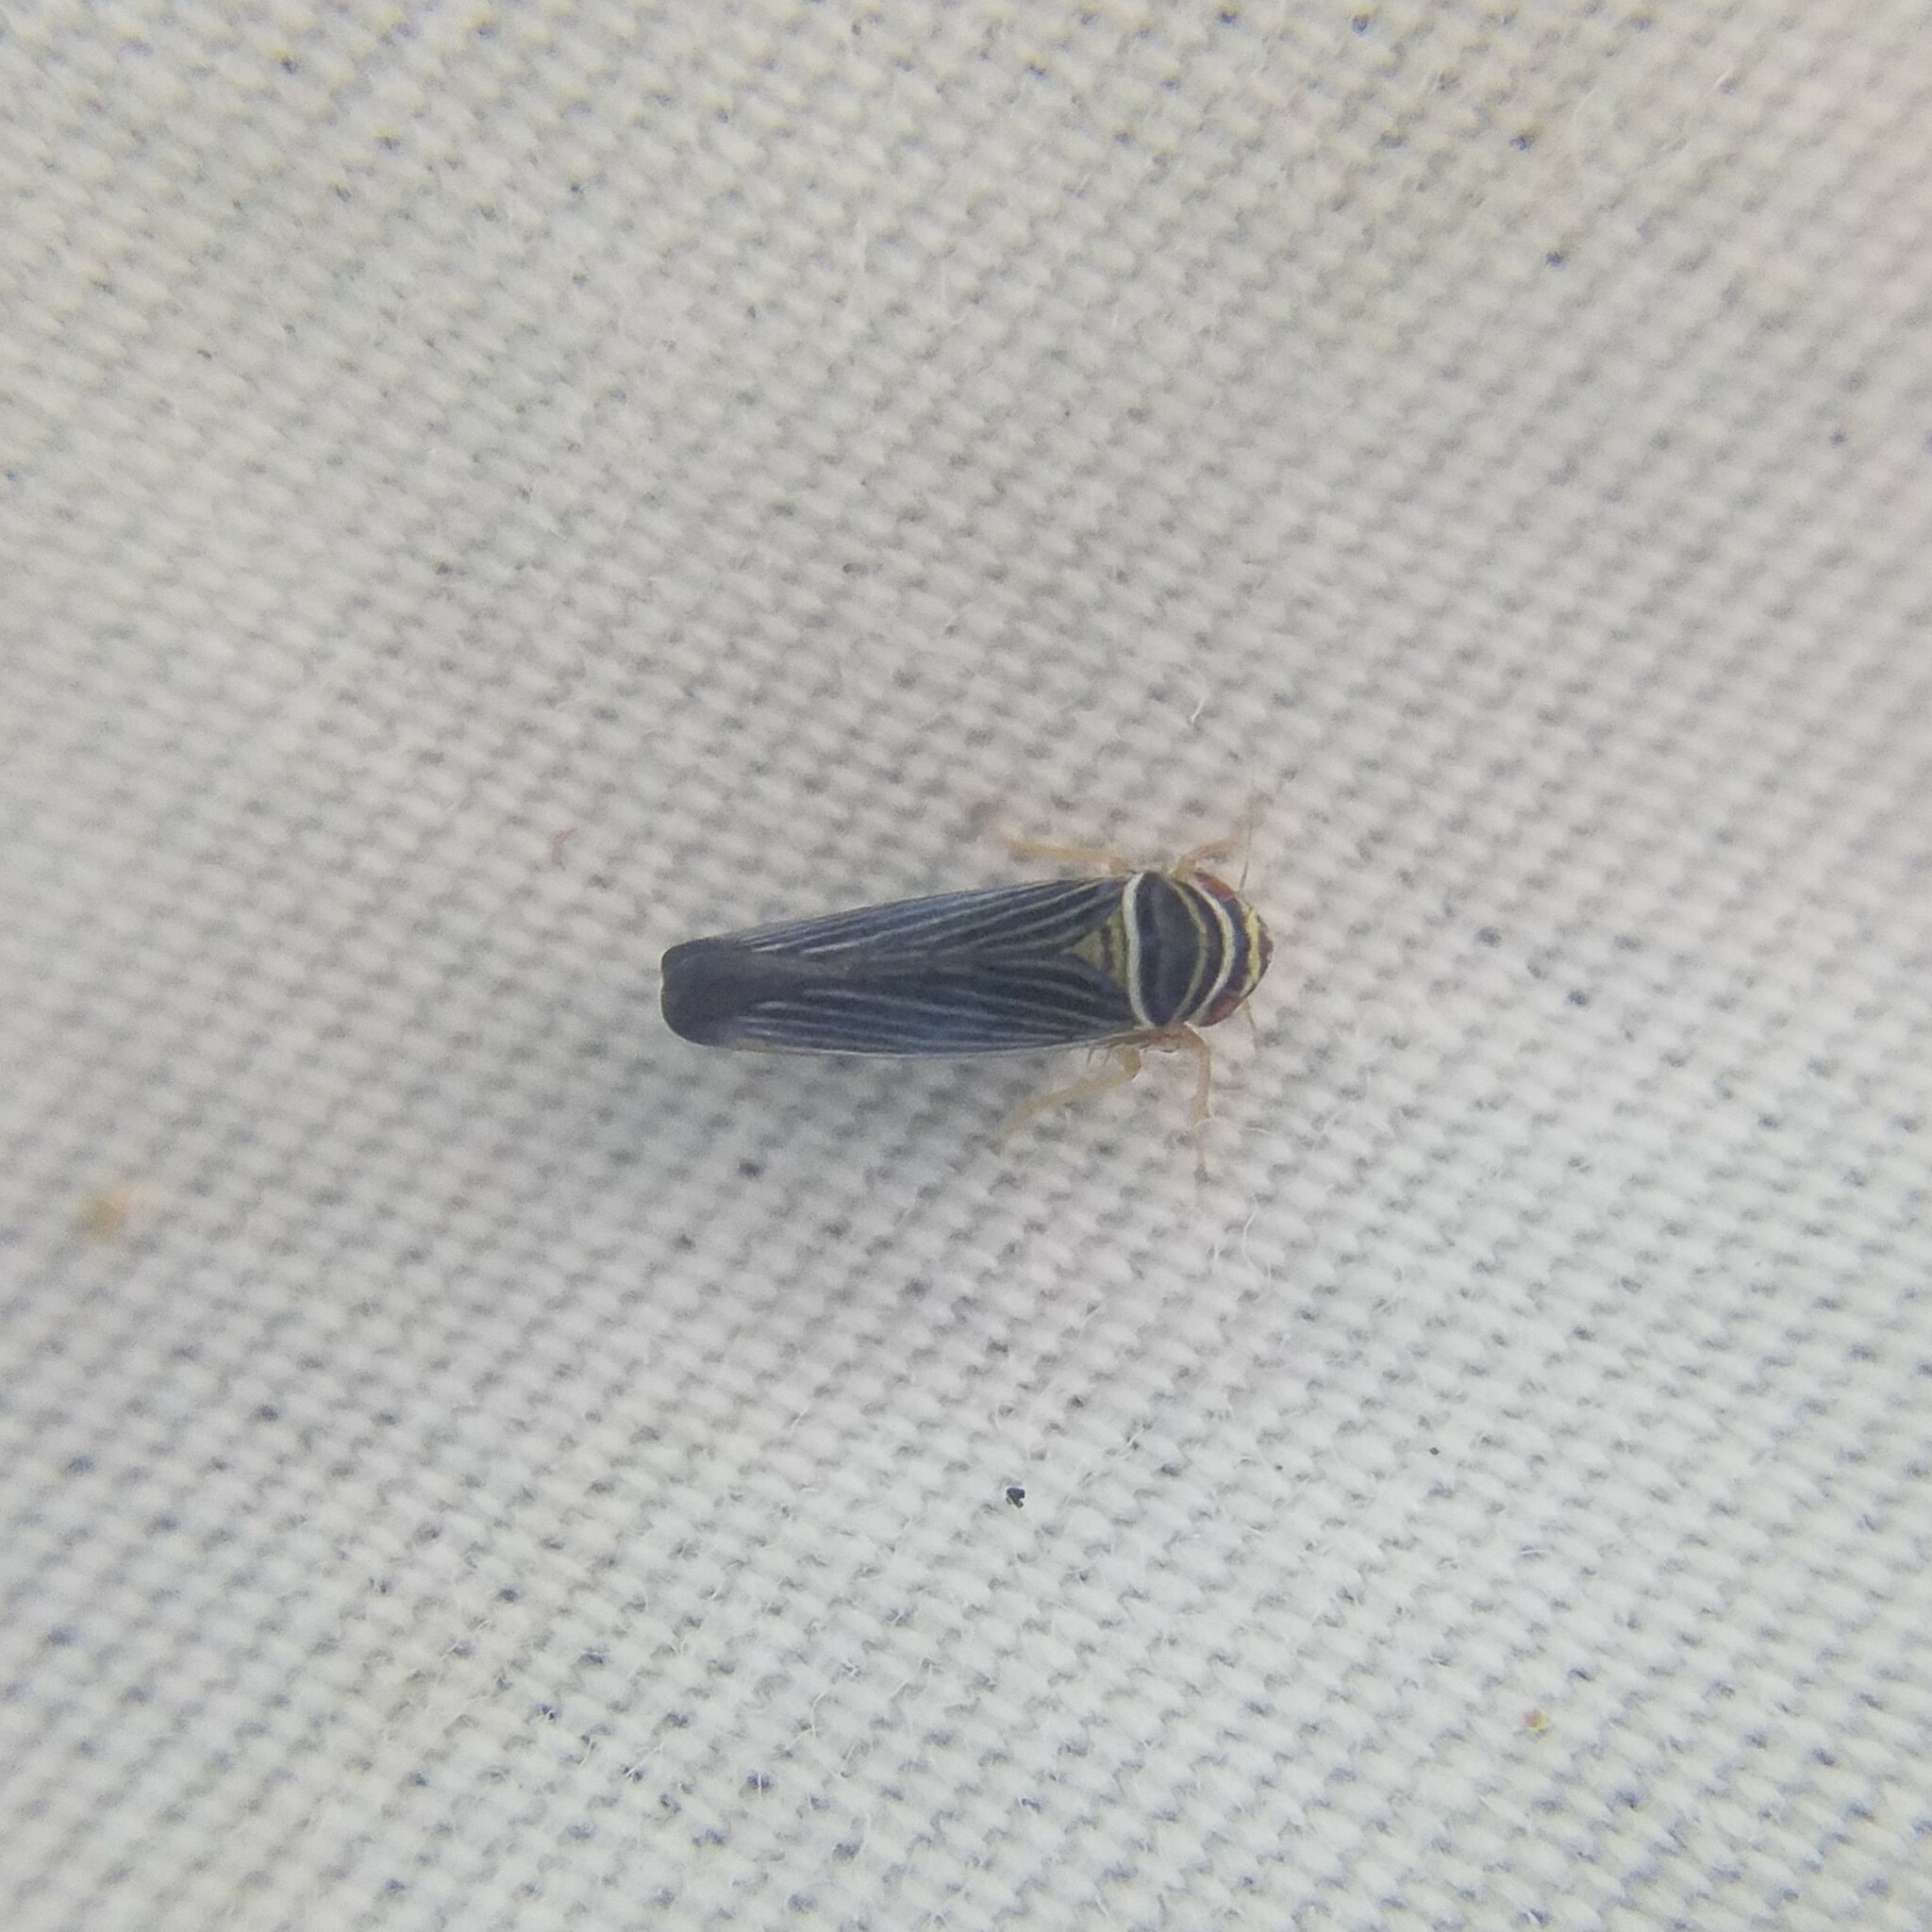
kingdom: Animalia
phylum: Arthropoda
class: Insecta
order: Hemiptera
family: Cicadellidae
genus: Tylozygus
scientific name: Tylozygus bifidus
